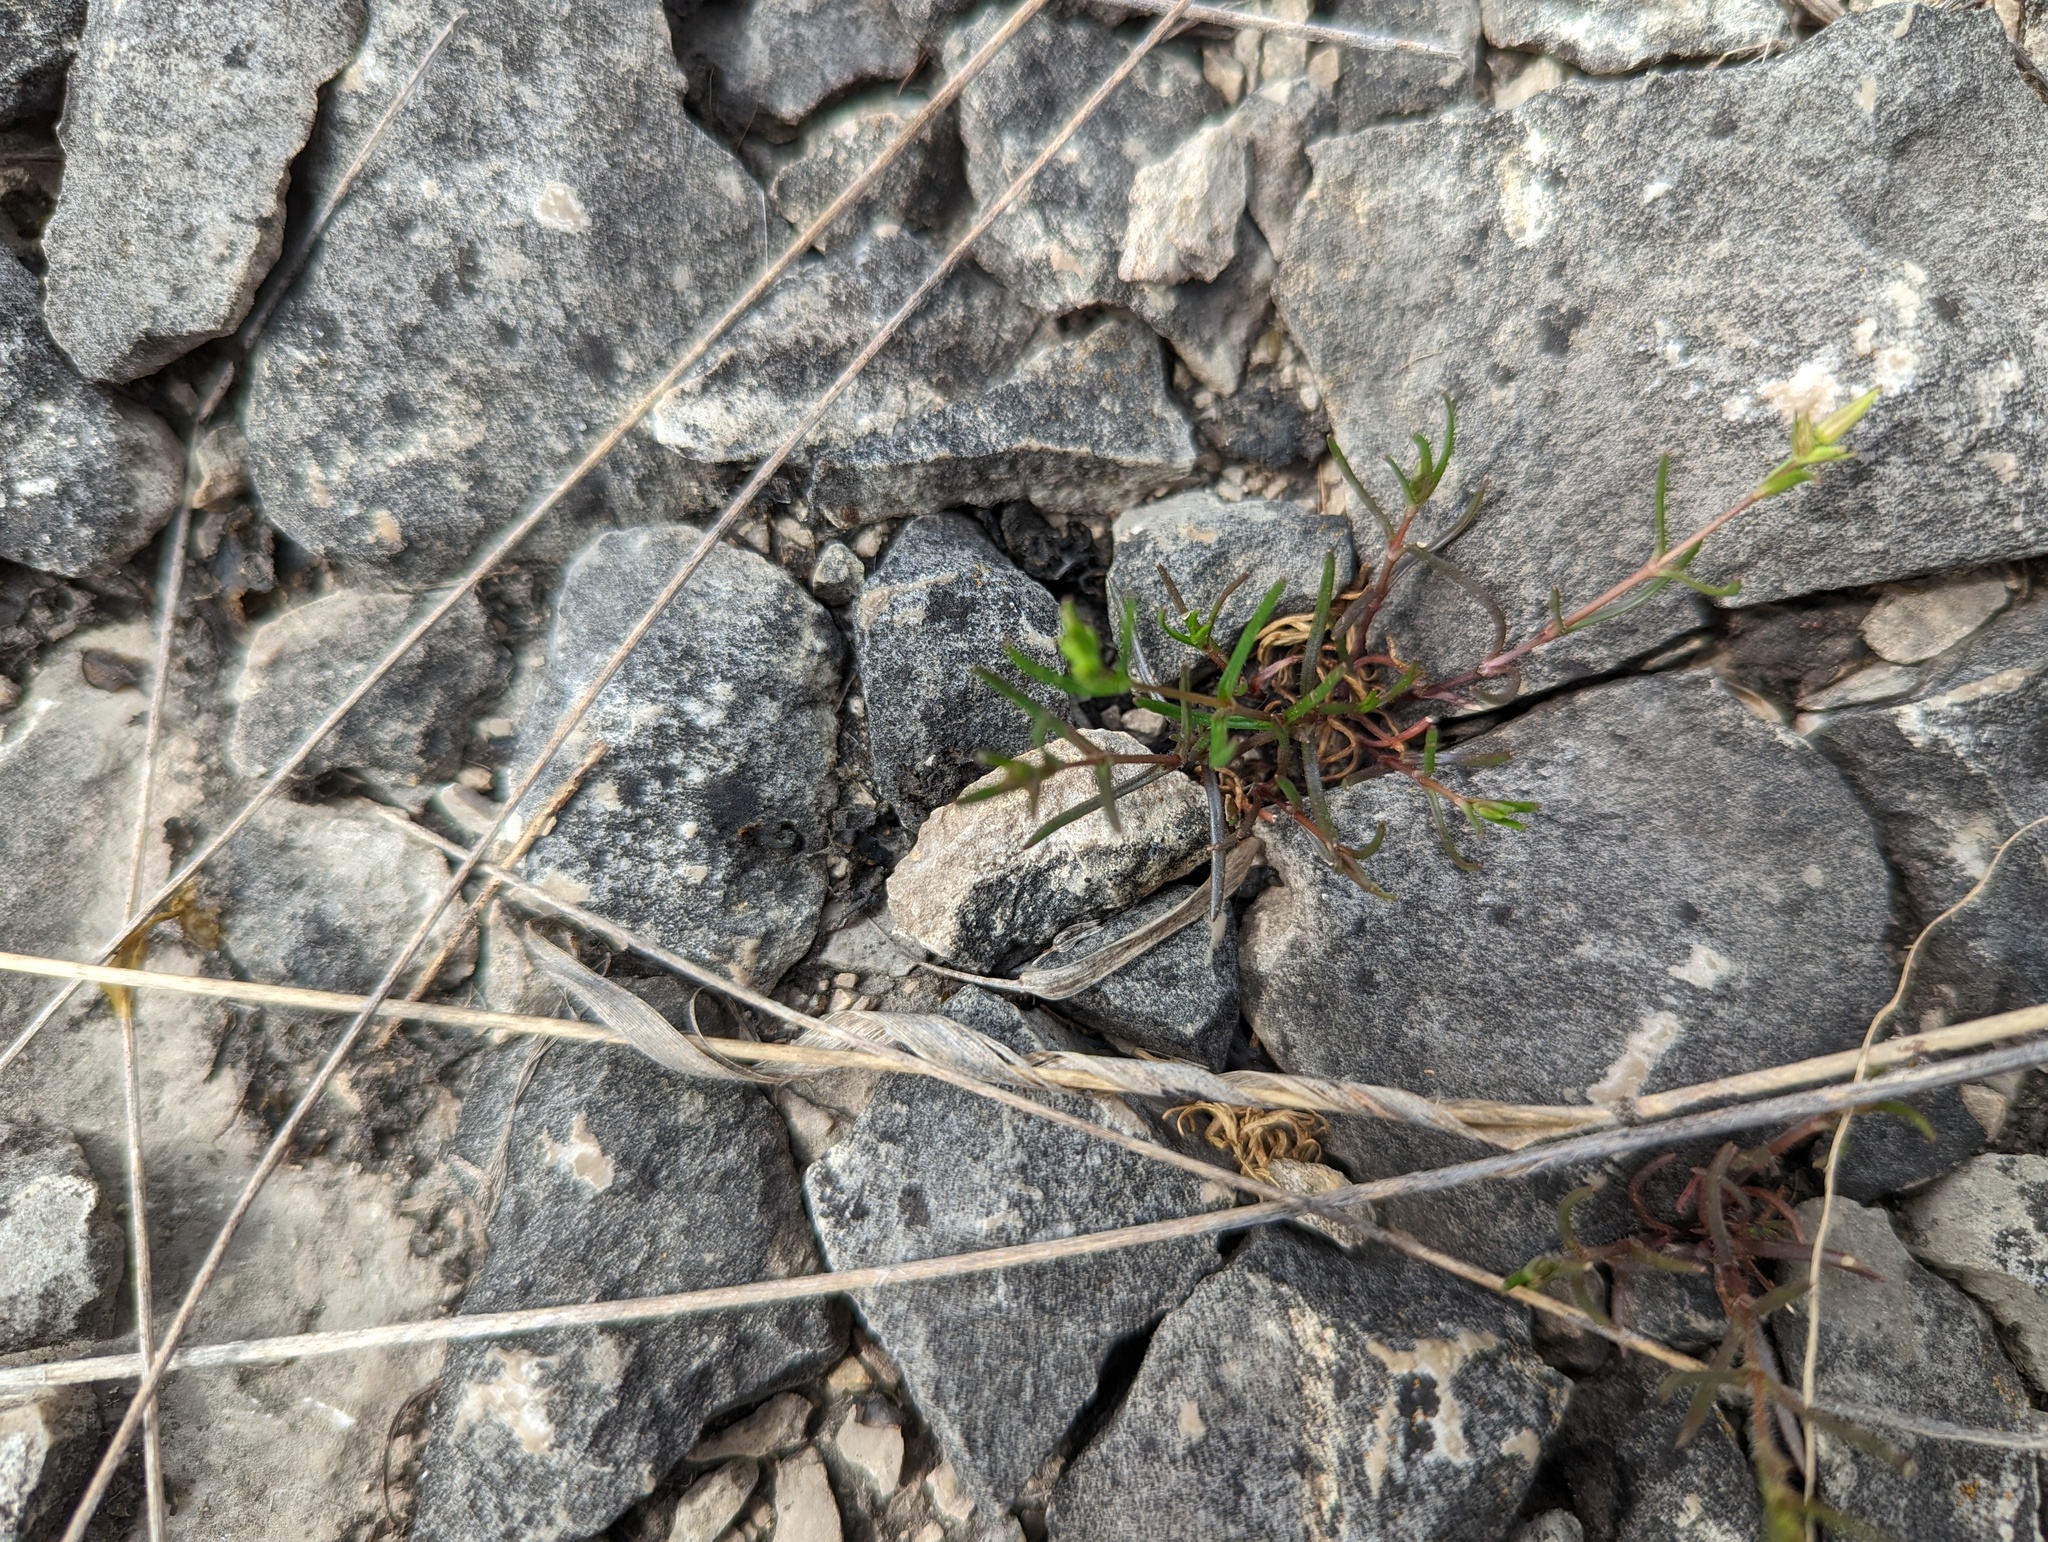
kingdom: Plantae
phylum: Tracheophyta
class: Magnoliopsida
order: Caryophyllales
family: Caryophyllaceae
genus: Mononeuria
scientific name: Mononeuria patula
